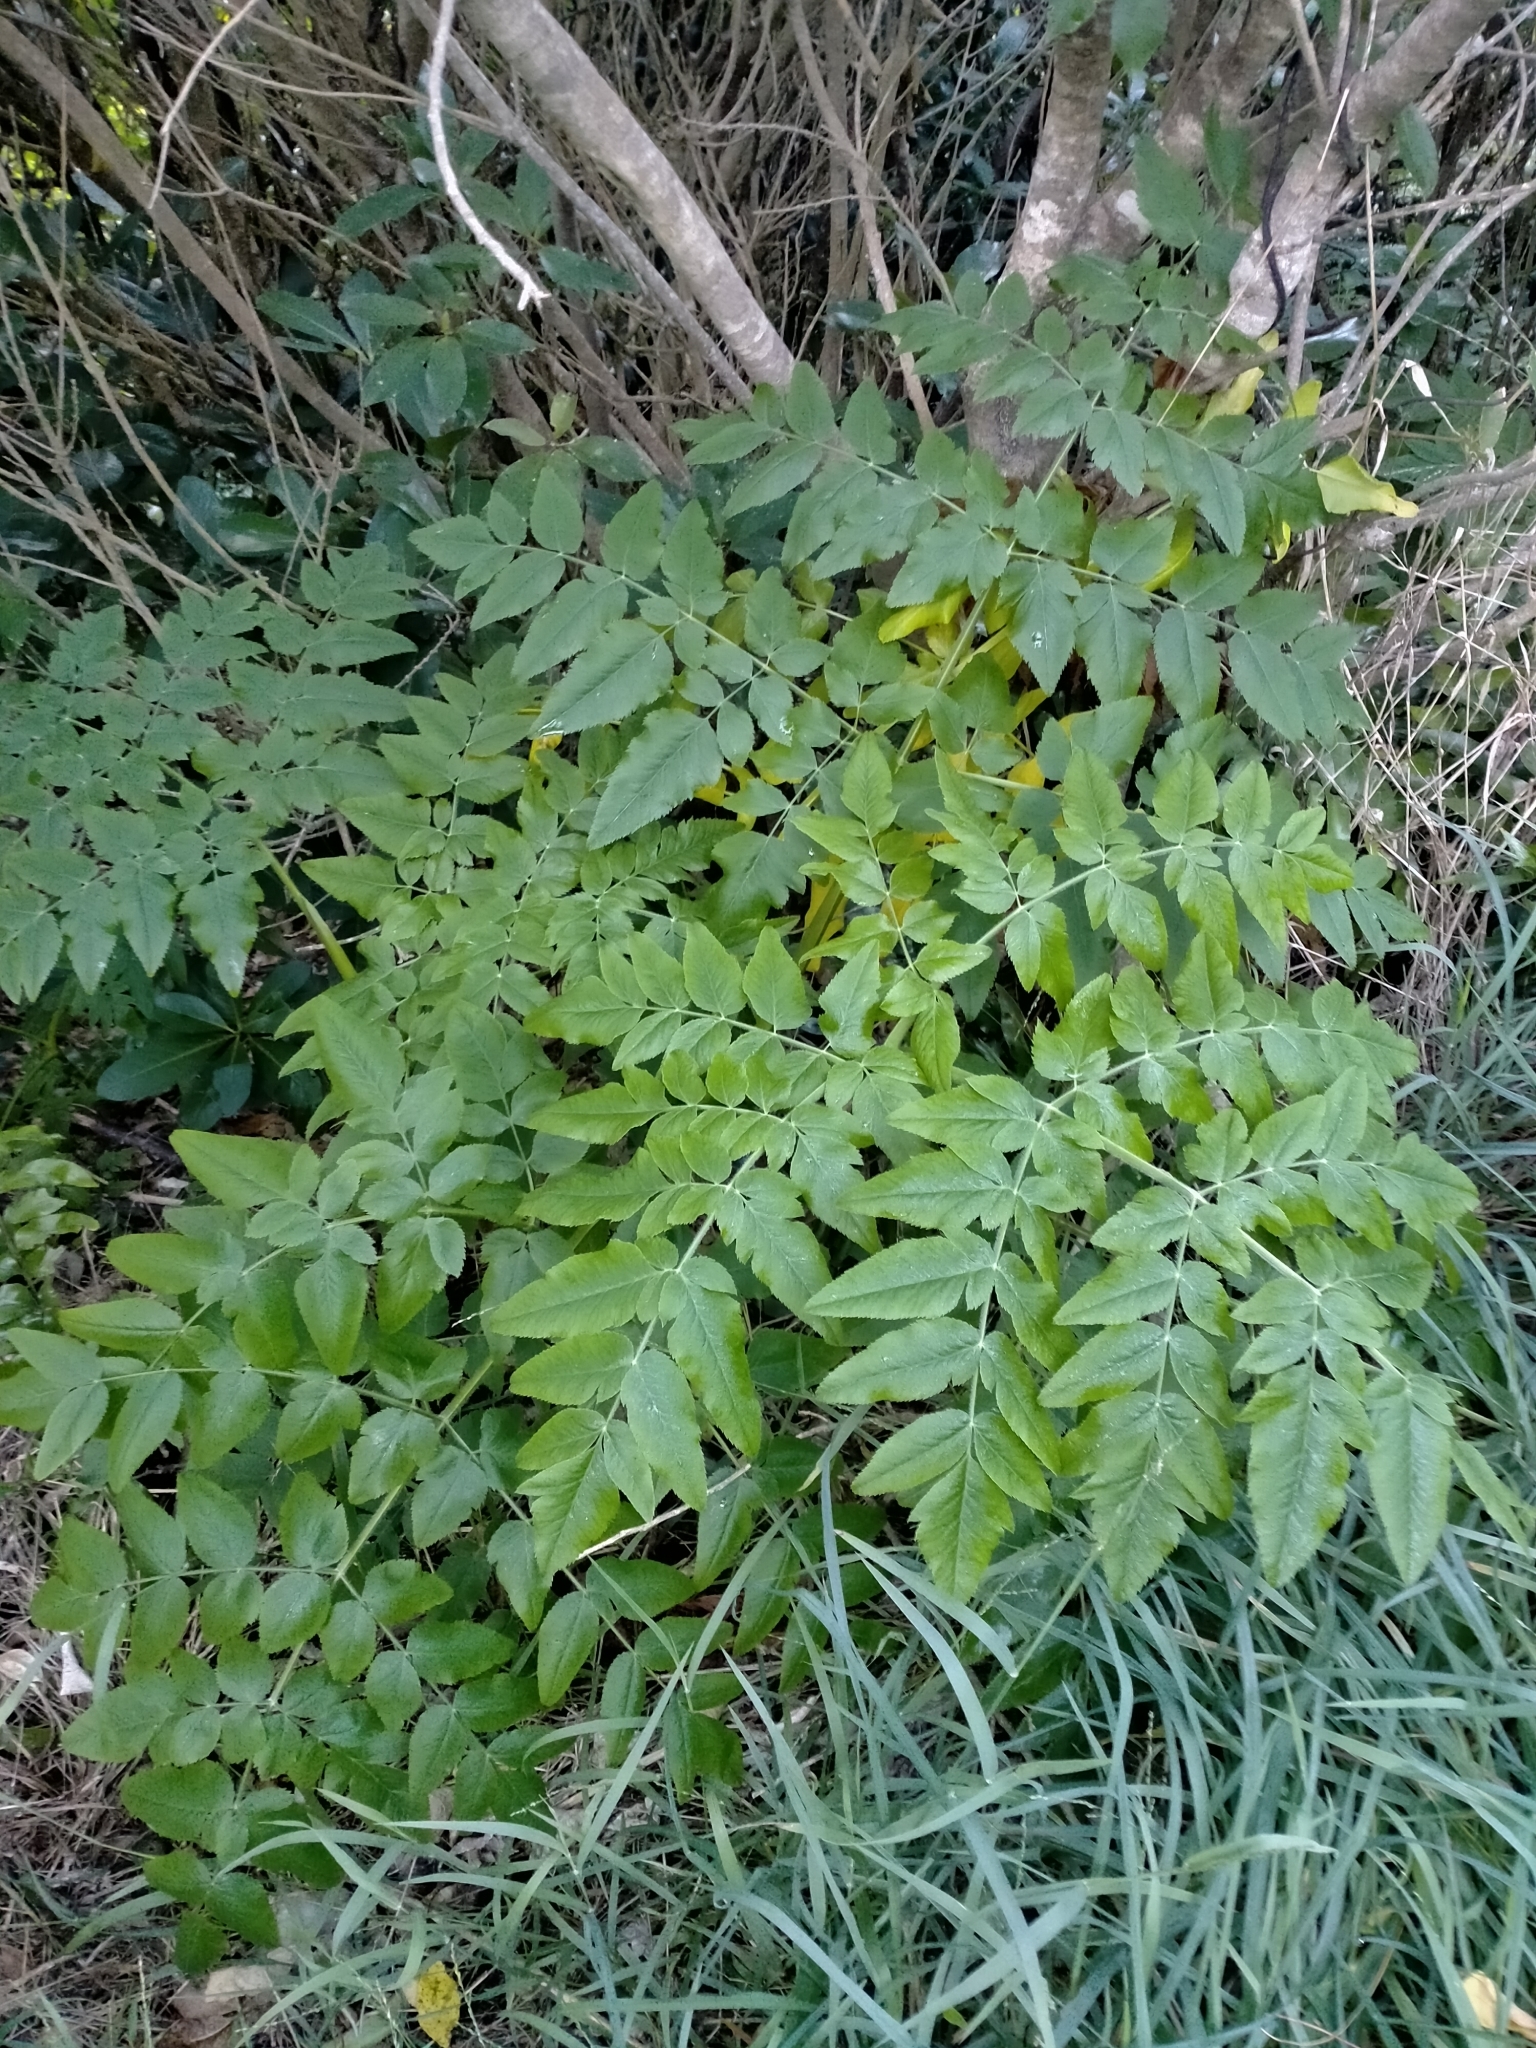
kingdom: Plantae
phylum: Tracheophyta
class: Magnoliopsida
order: Apiales
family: Apiaceae
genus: Daucus
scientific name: Daucus decipiens
